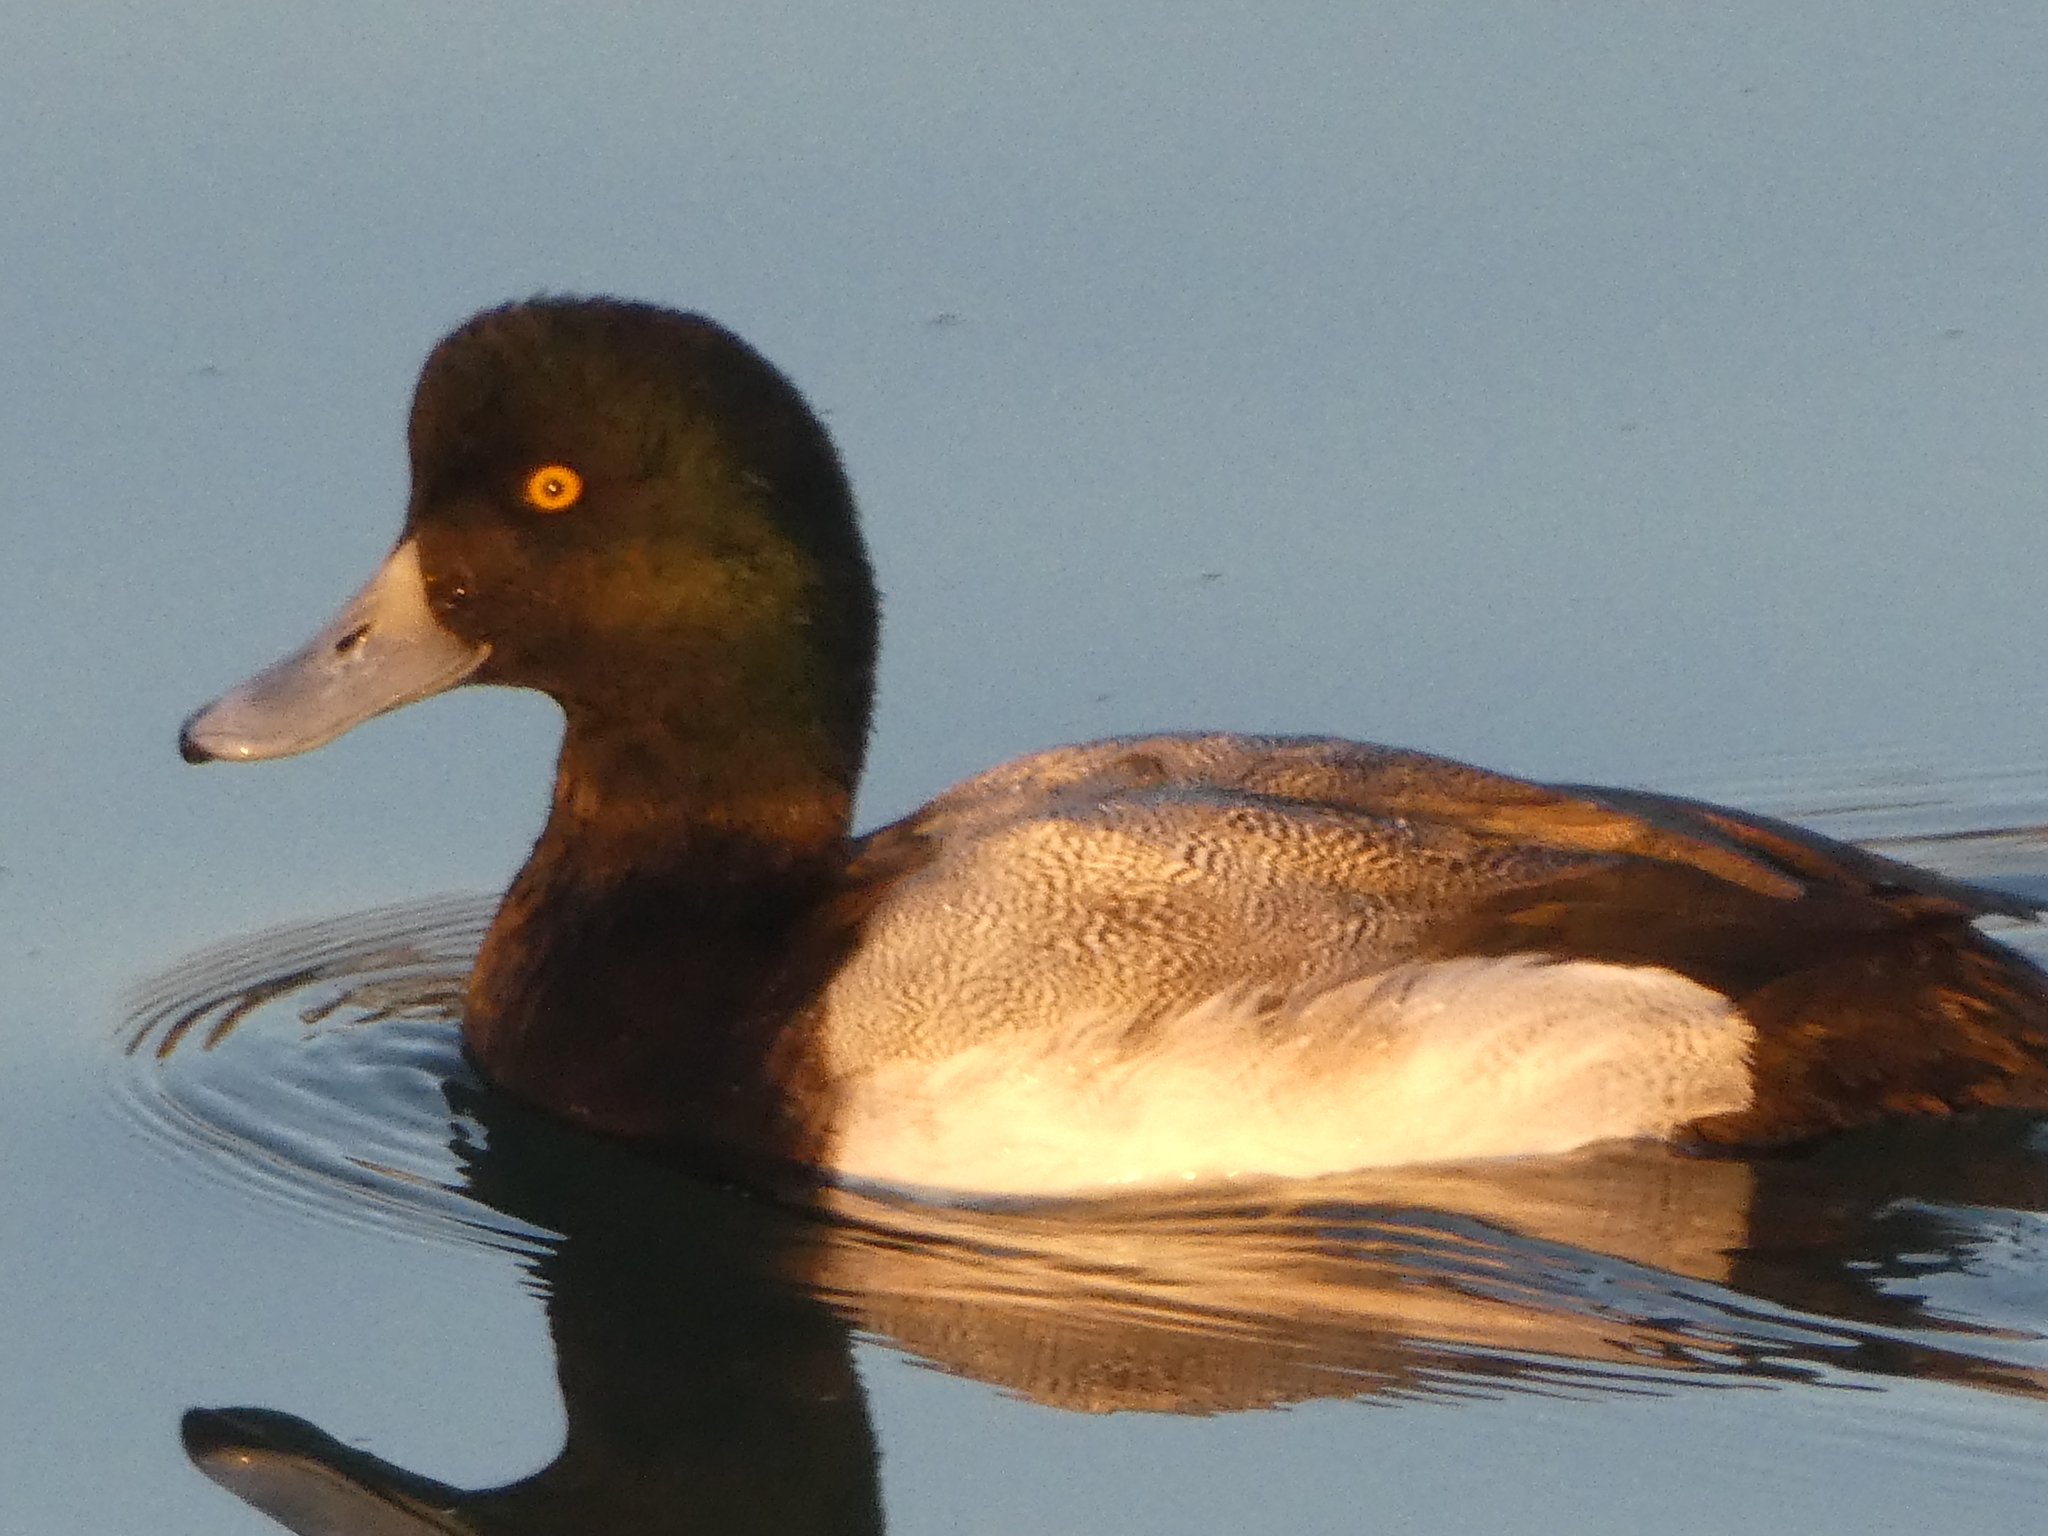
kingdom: Animalia
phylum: Chordata
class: Aves
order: Anseriformes
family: Anatidae
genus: Aythya
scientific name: Aythya affinis
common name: Lesser scaup
